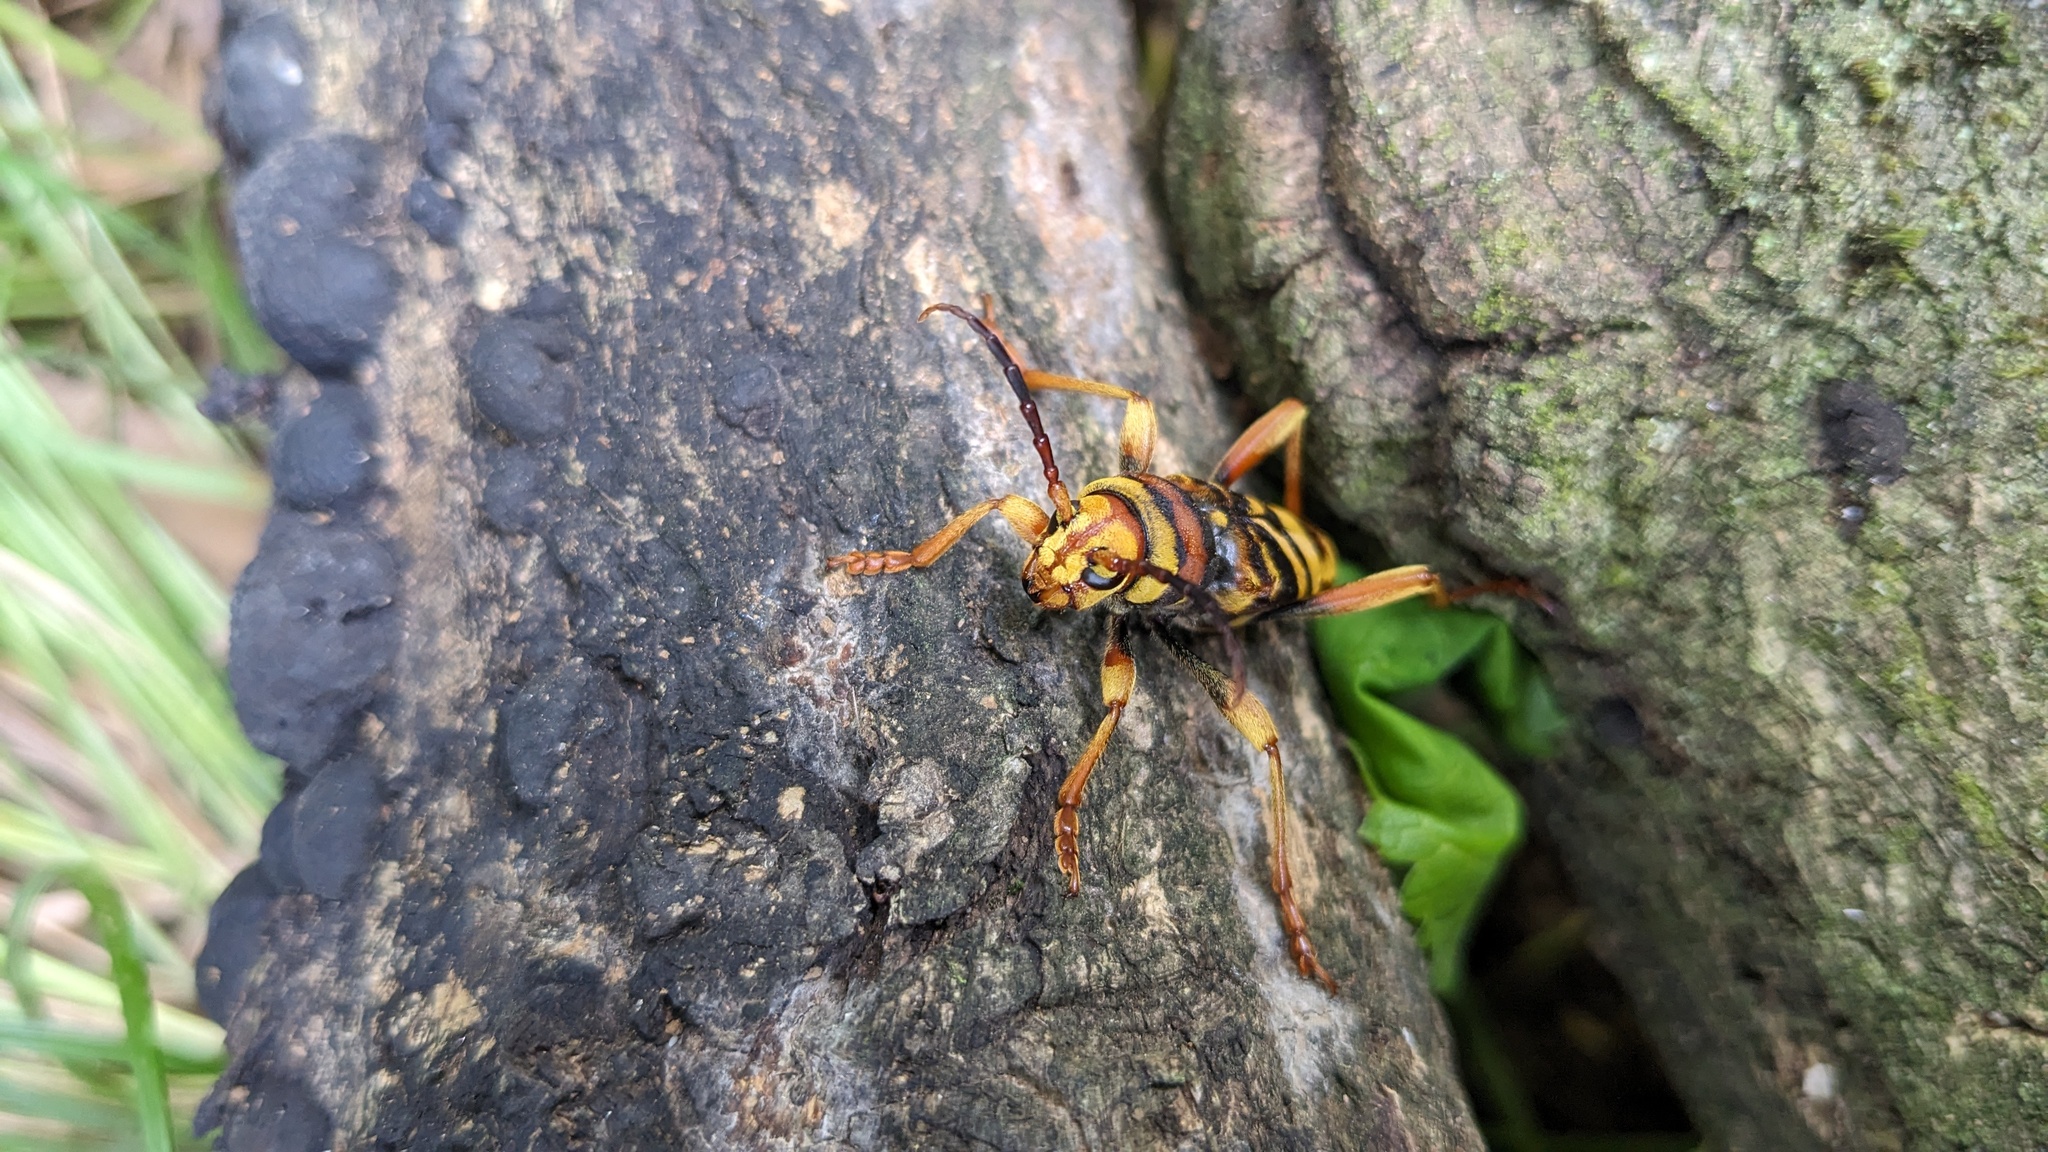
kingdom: Animalia
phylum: Arthropoda
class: Insecta
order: Coleoptera
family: Cerambycidae
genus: Xylotrechus
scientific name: Xylotrechus chinensis
